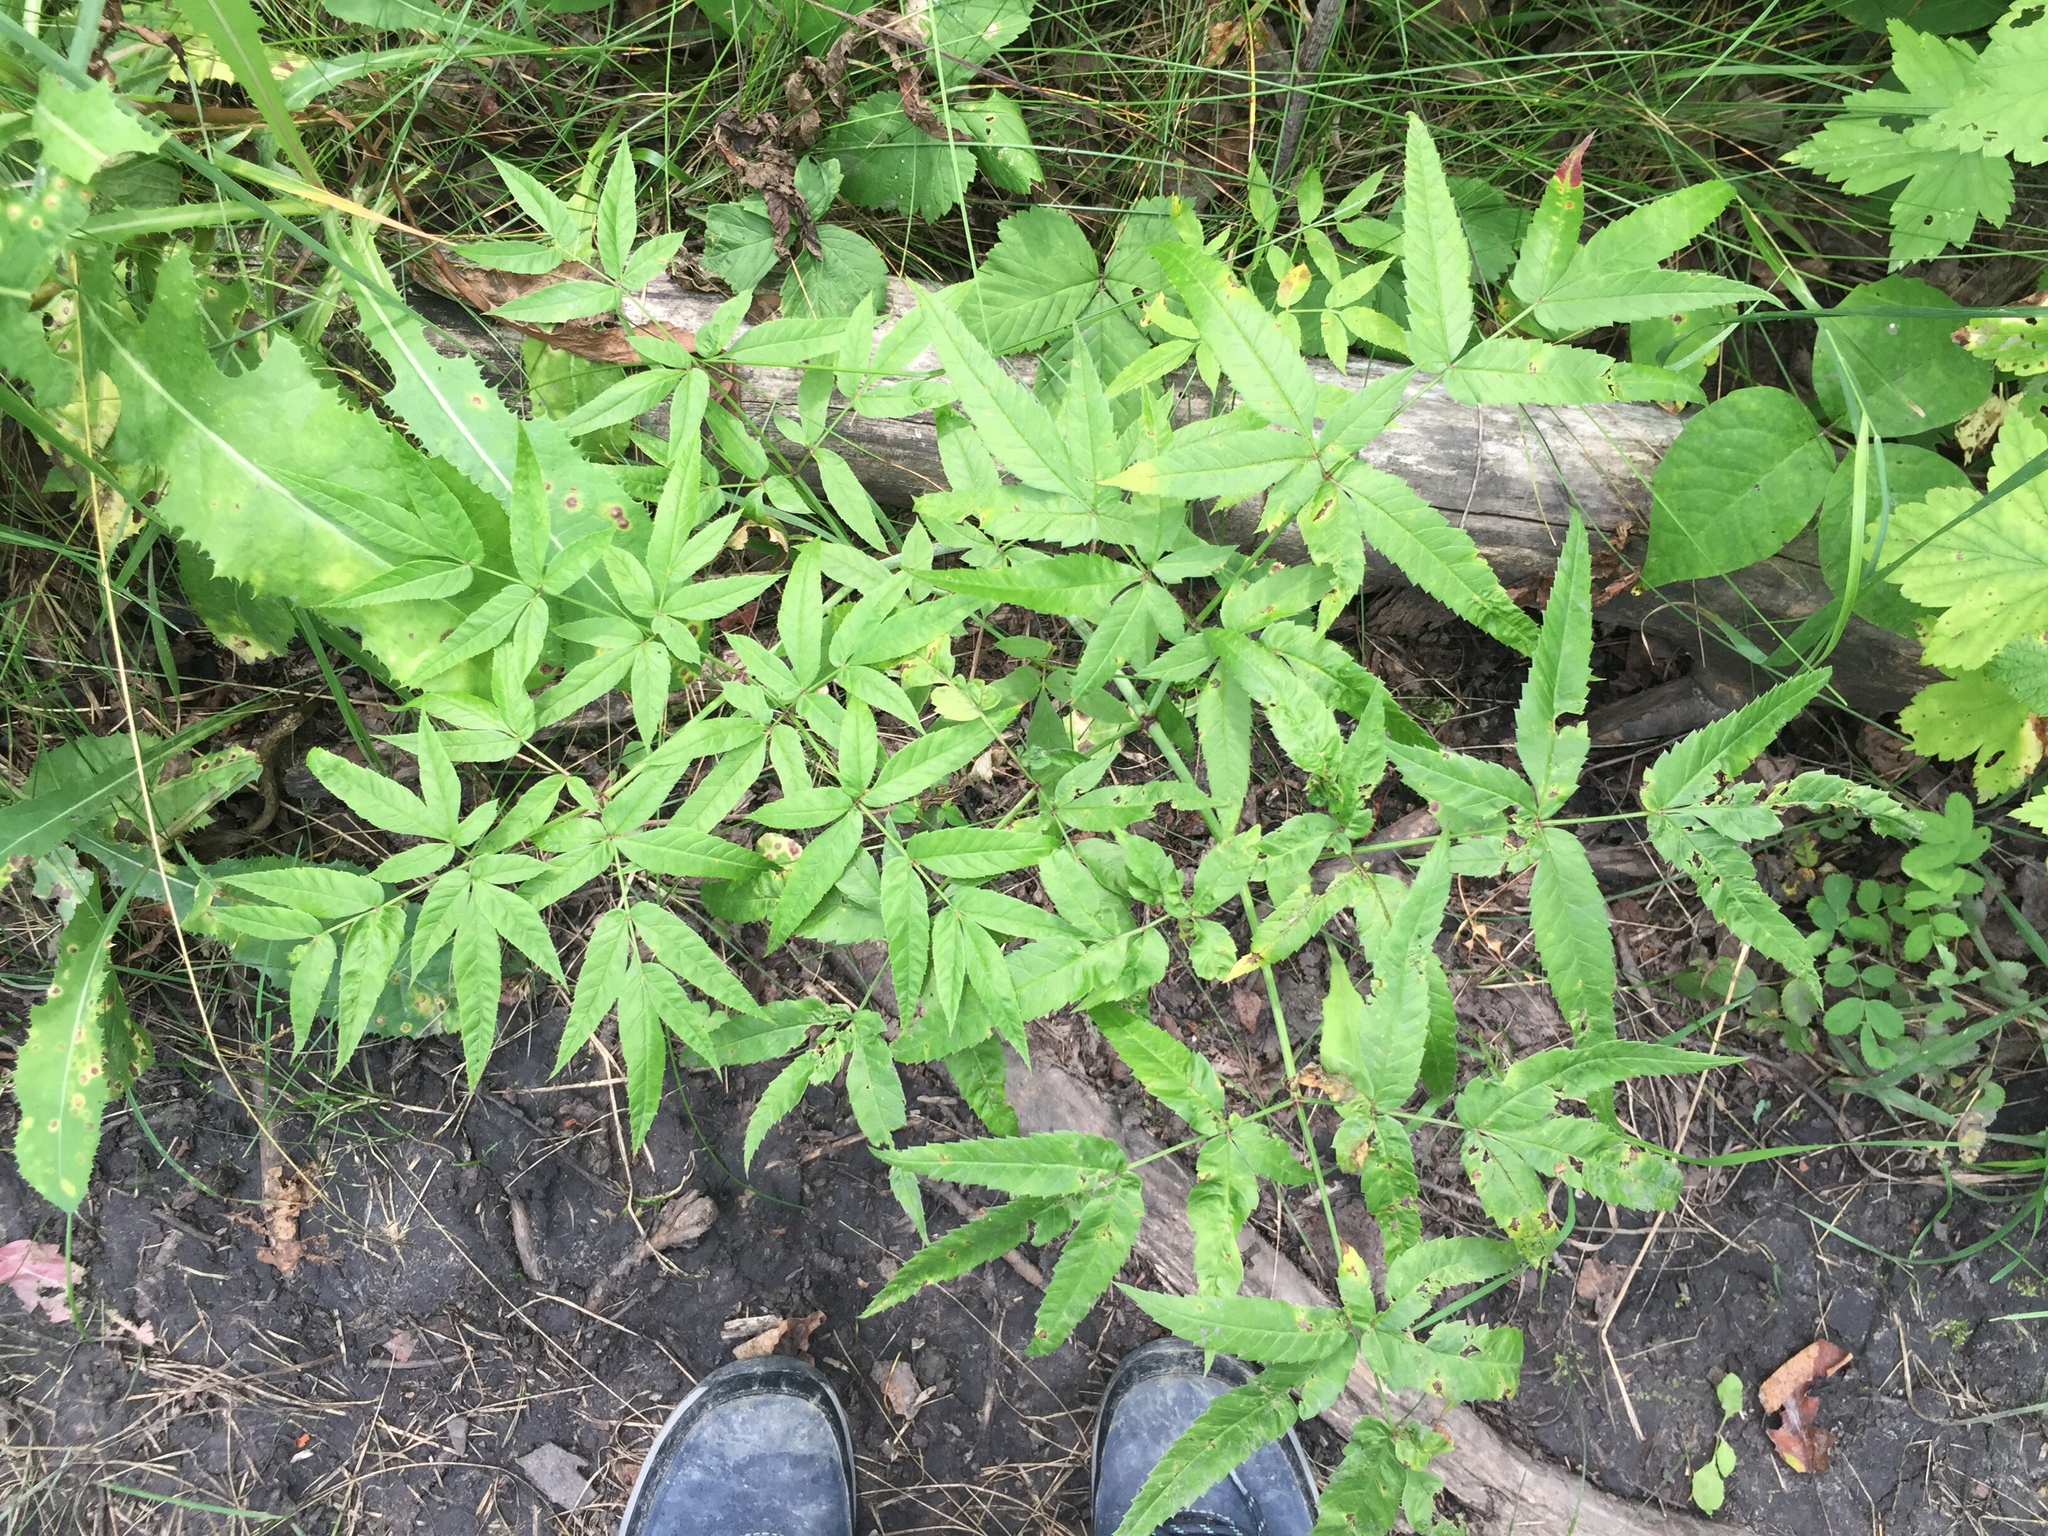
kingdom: Plantae
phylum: Tracheophyta
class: Magnoliopsida
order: Apiales
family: Apiaceae
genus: Cicuta
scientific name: Cicuta maculata
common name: Spotted cowbane
